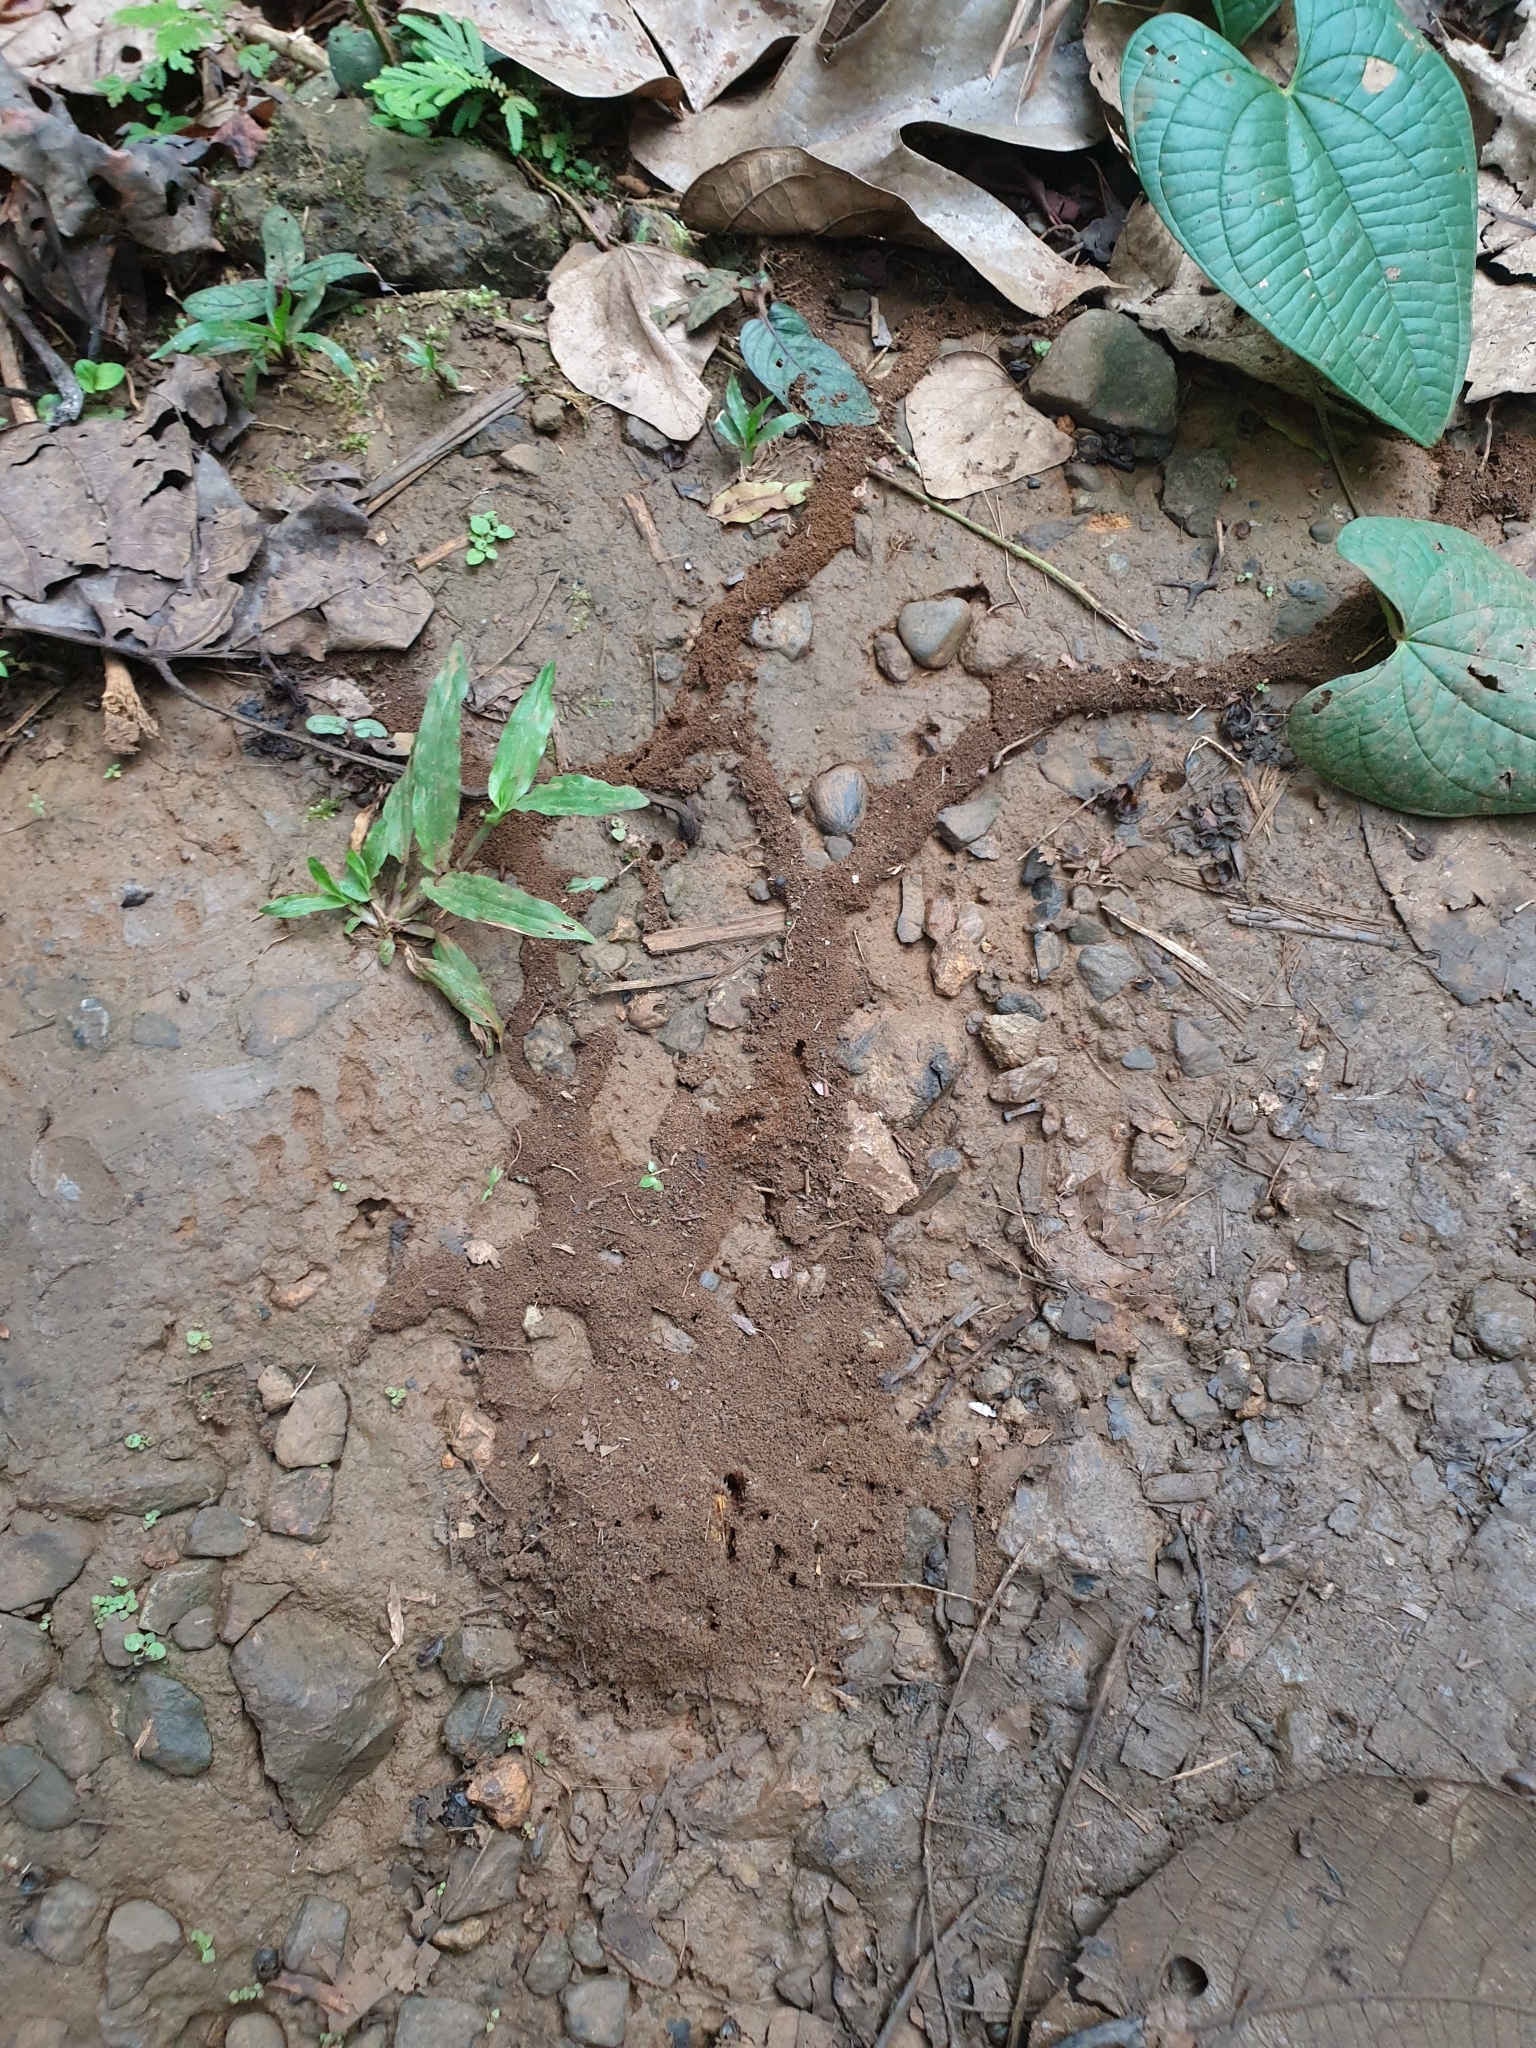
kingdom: Animalia
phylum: Arthropoda
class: Insecta
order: Hymenoptera
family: Formicidae
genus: Carebara
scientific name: Carebara affinis
